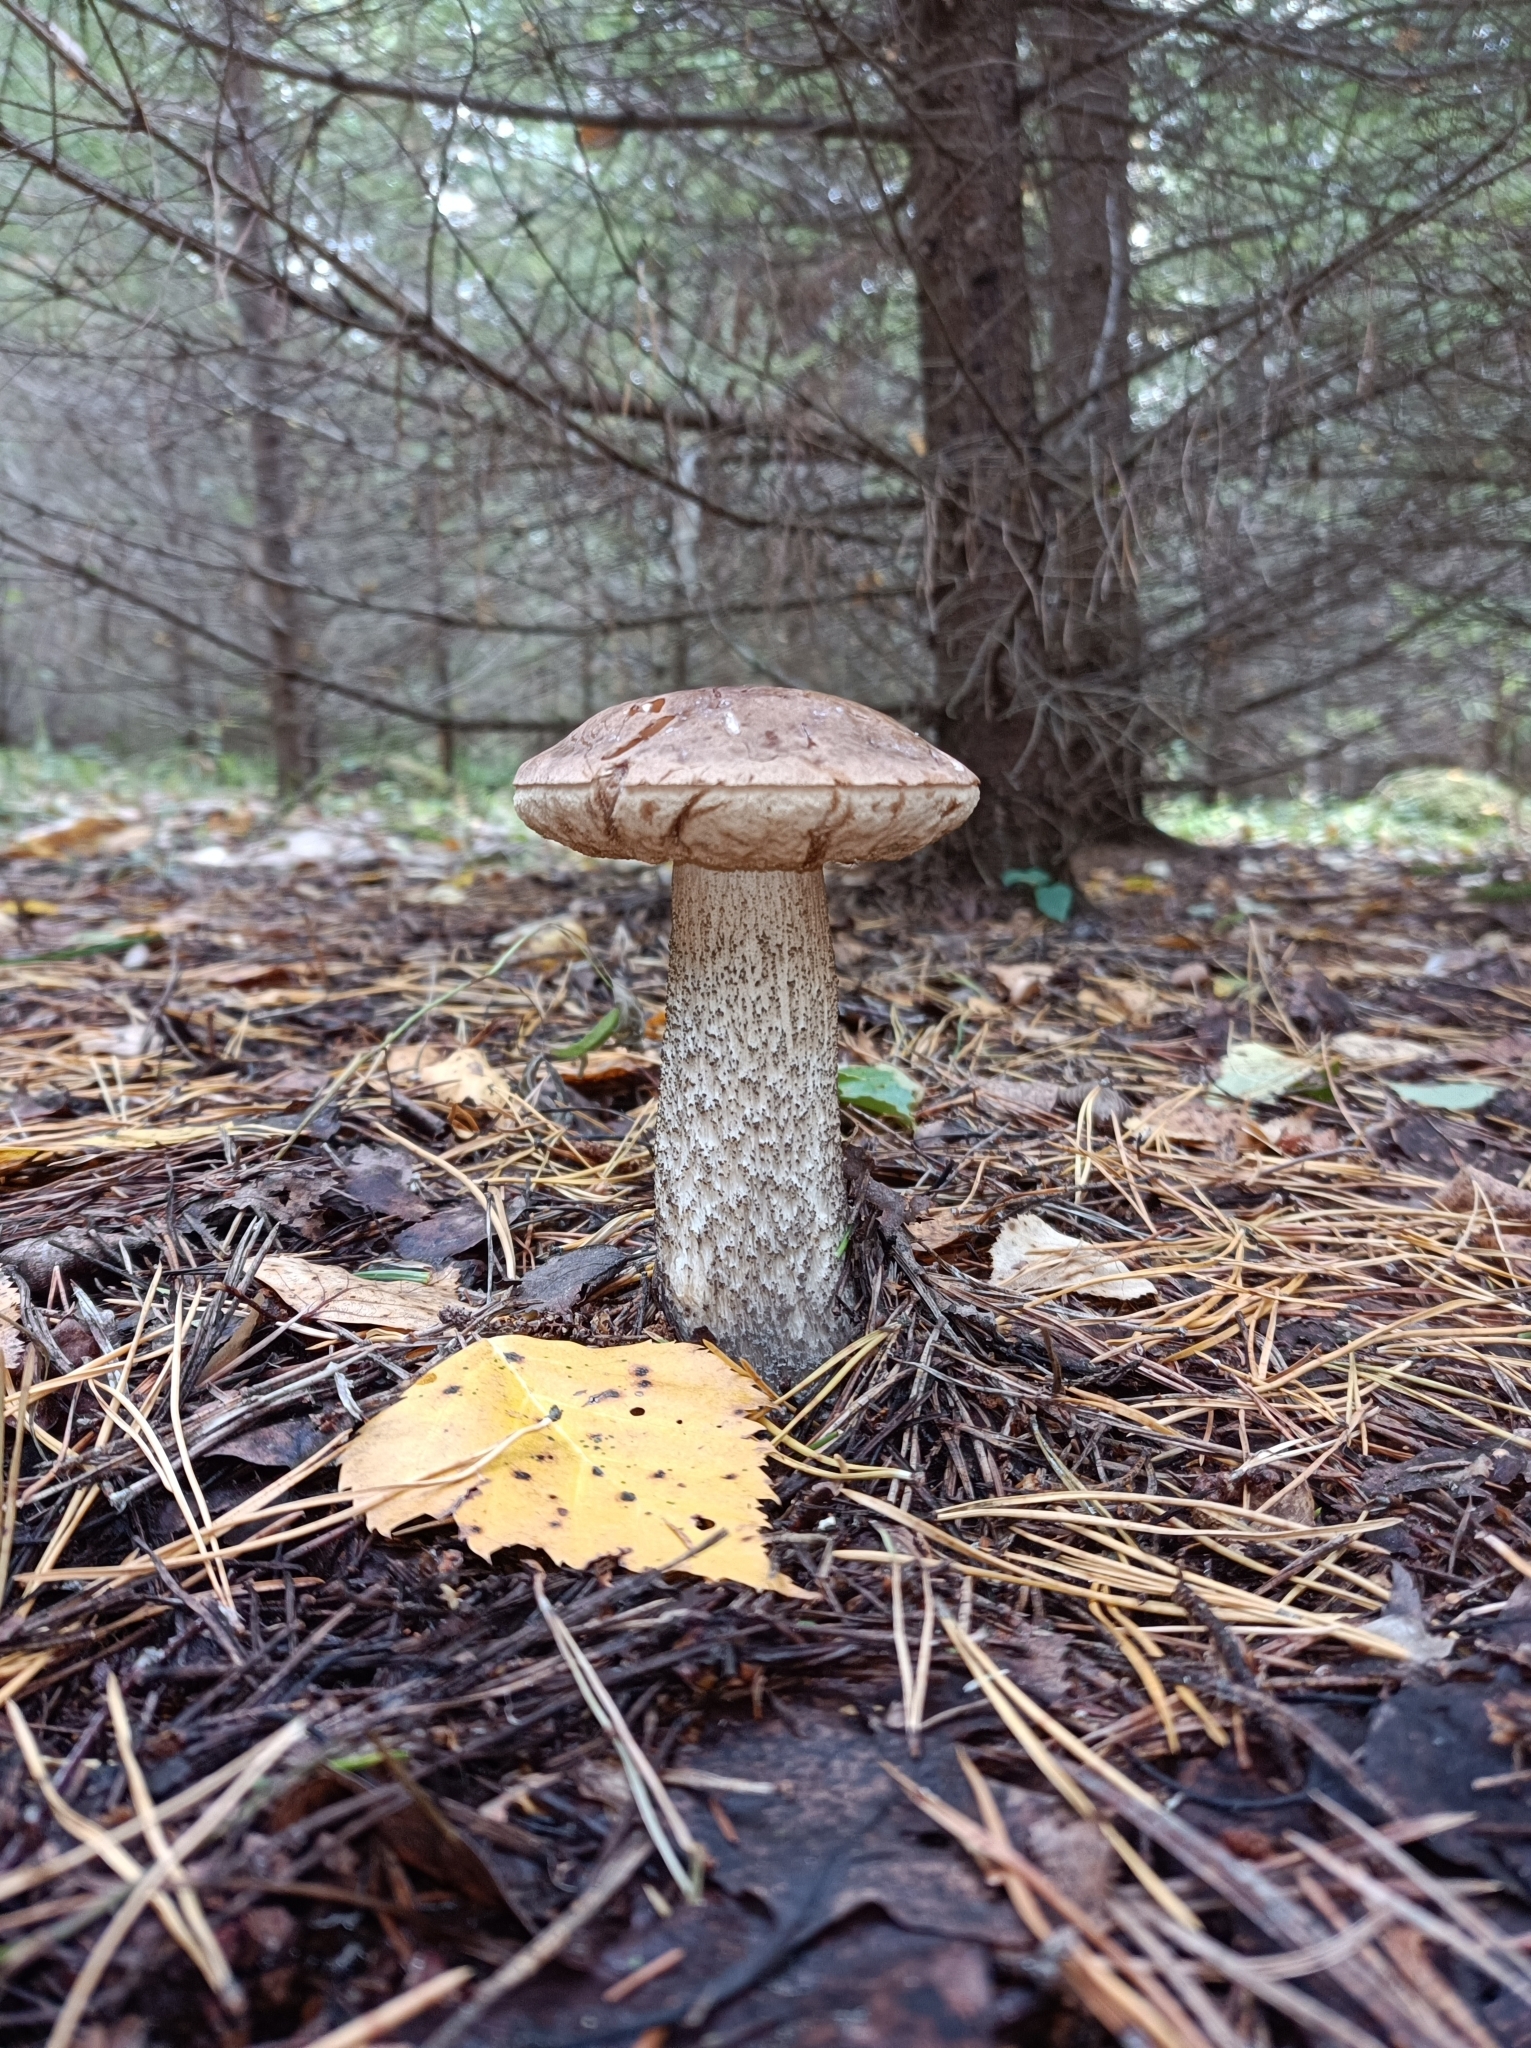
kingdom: Fungi
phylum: Basidiomycota
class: Agaricomycetes
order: Boletales
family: Boletaceae
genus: Leccinum
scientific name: Leccinum scabrum
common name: Blushing bolete
